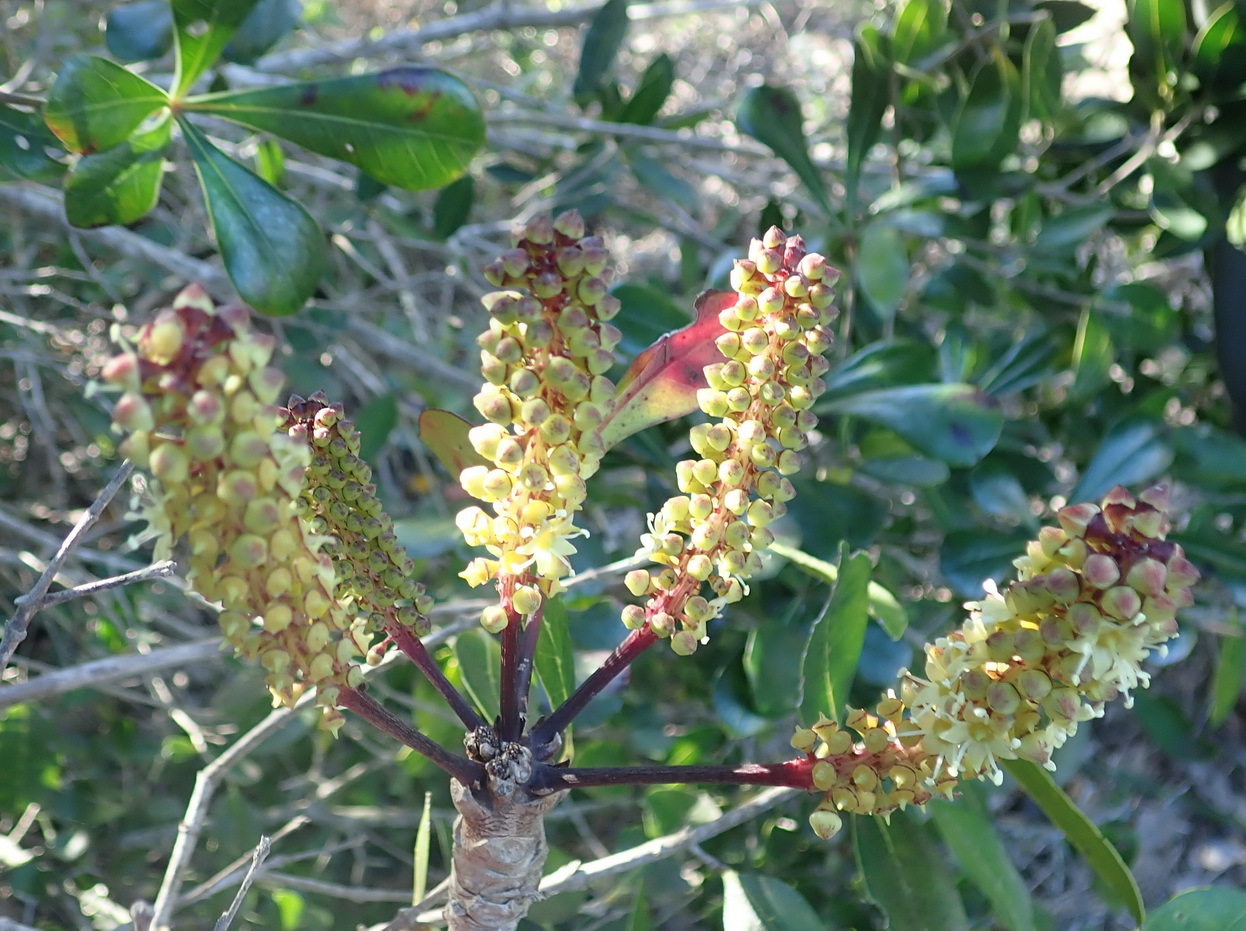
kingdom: Plantae
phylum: Tracheophyta
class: Magnoliopsida
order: Apiales
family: Araliaceae
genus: Cussonia
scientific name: Cussonia thyrsiflora
